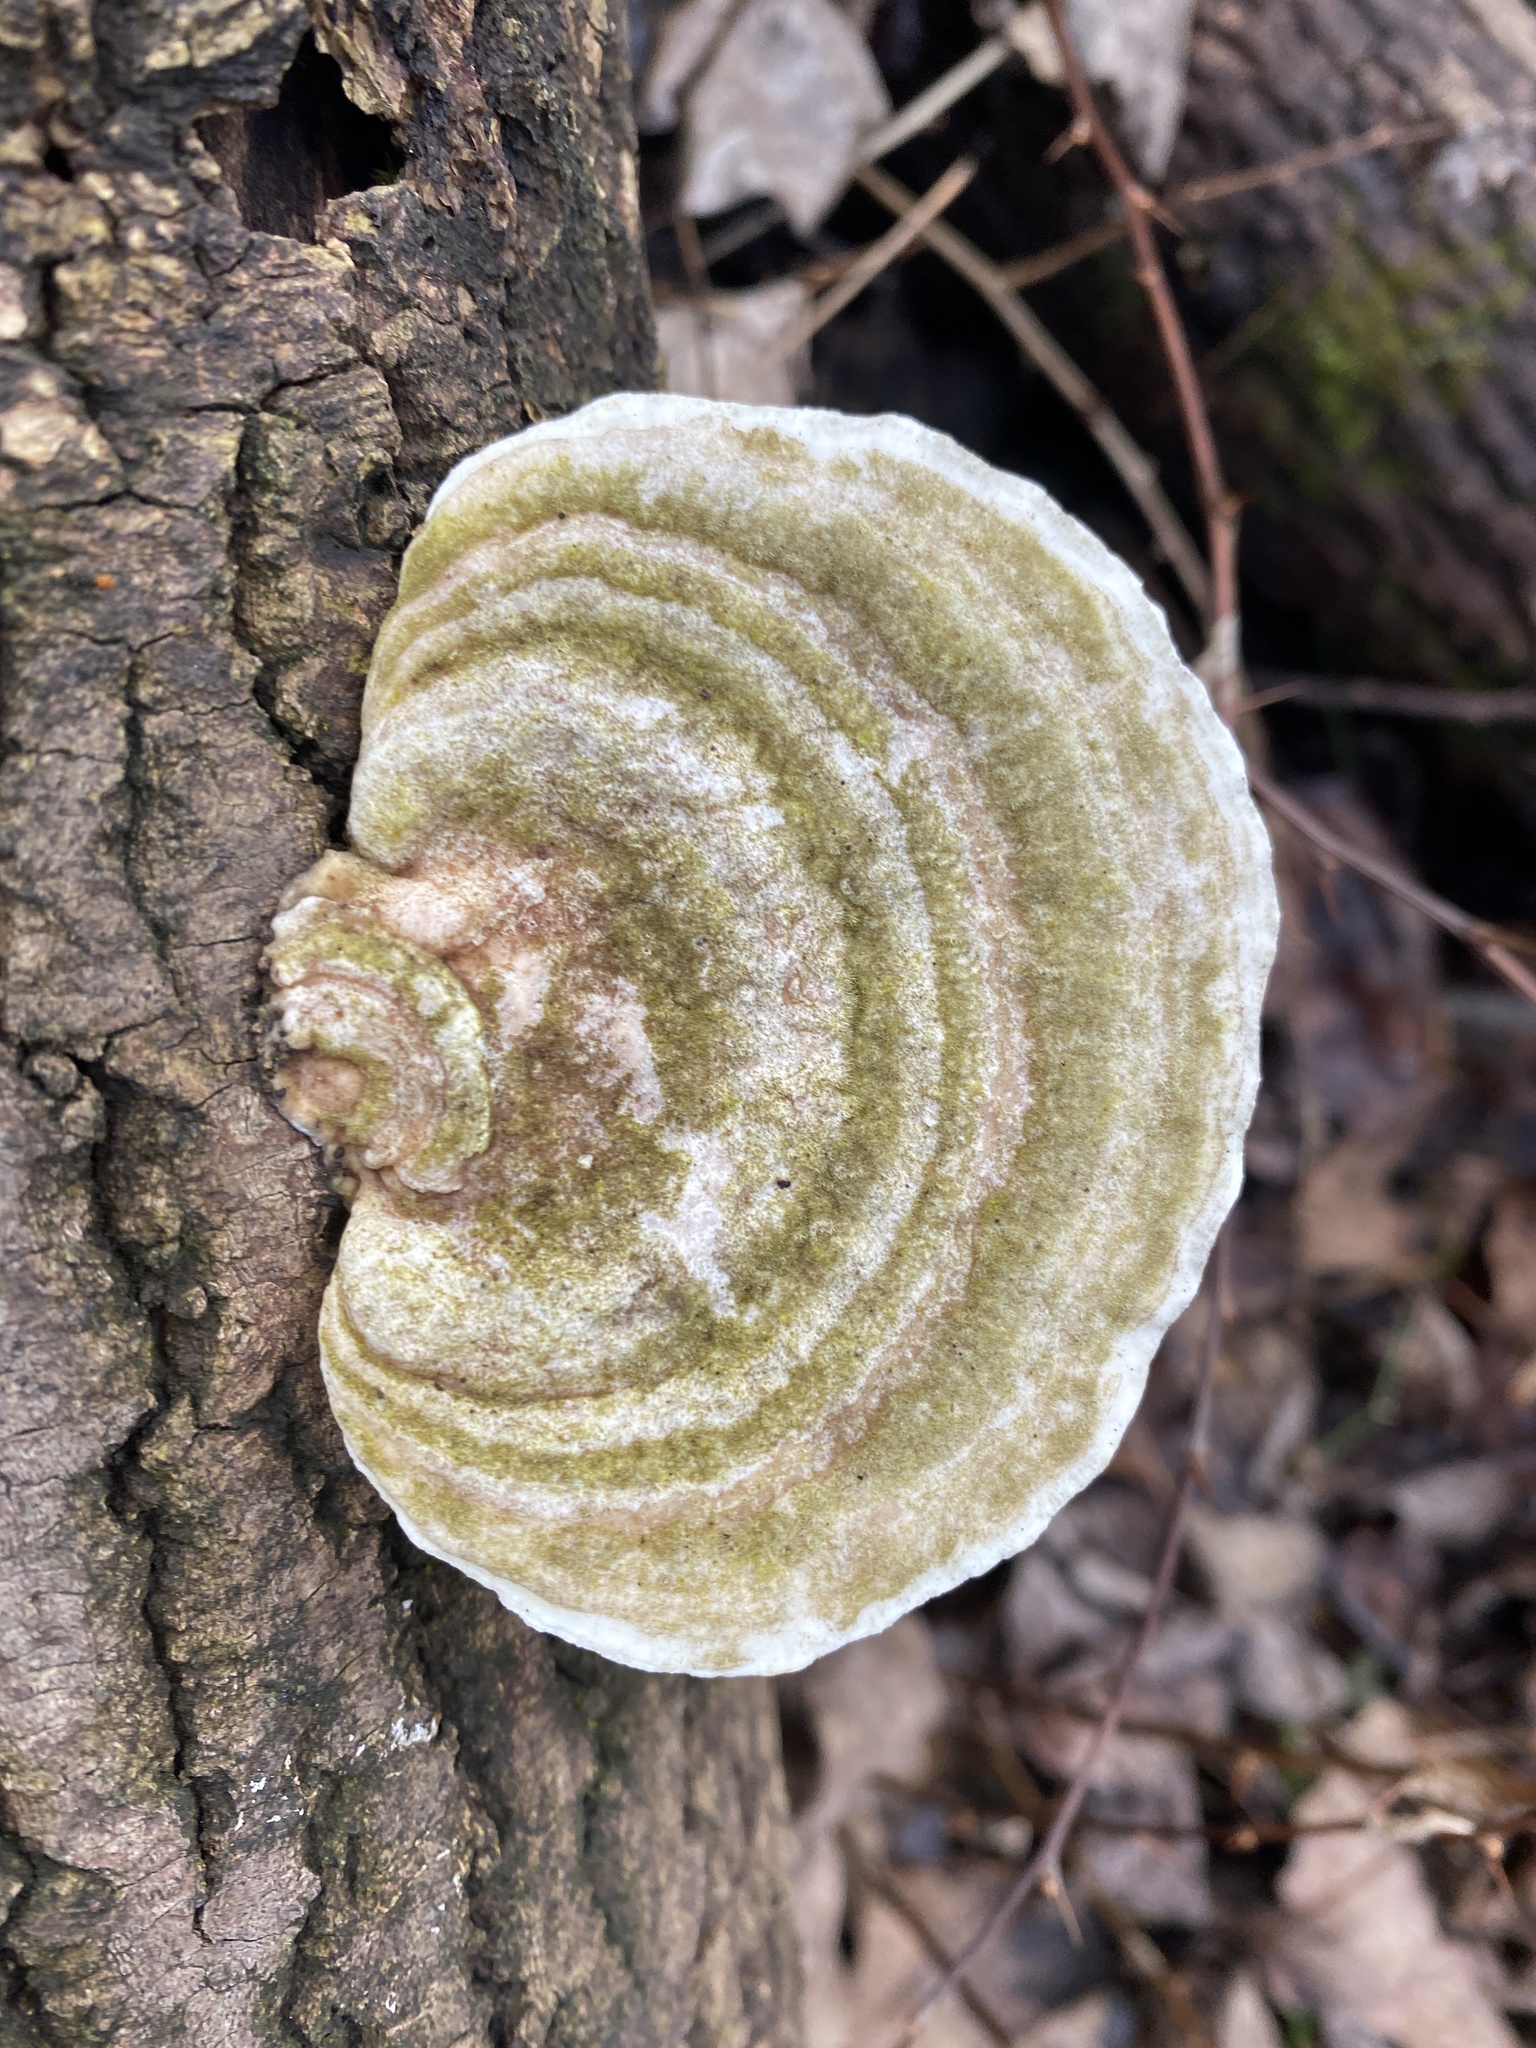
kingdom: Fungi
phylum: Basidiomycota
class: Agaricomycetes
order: Polyporales
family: Polyporaceae
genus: Trametes
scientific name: Trametes gibbosa
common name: Lumpy bracket
